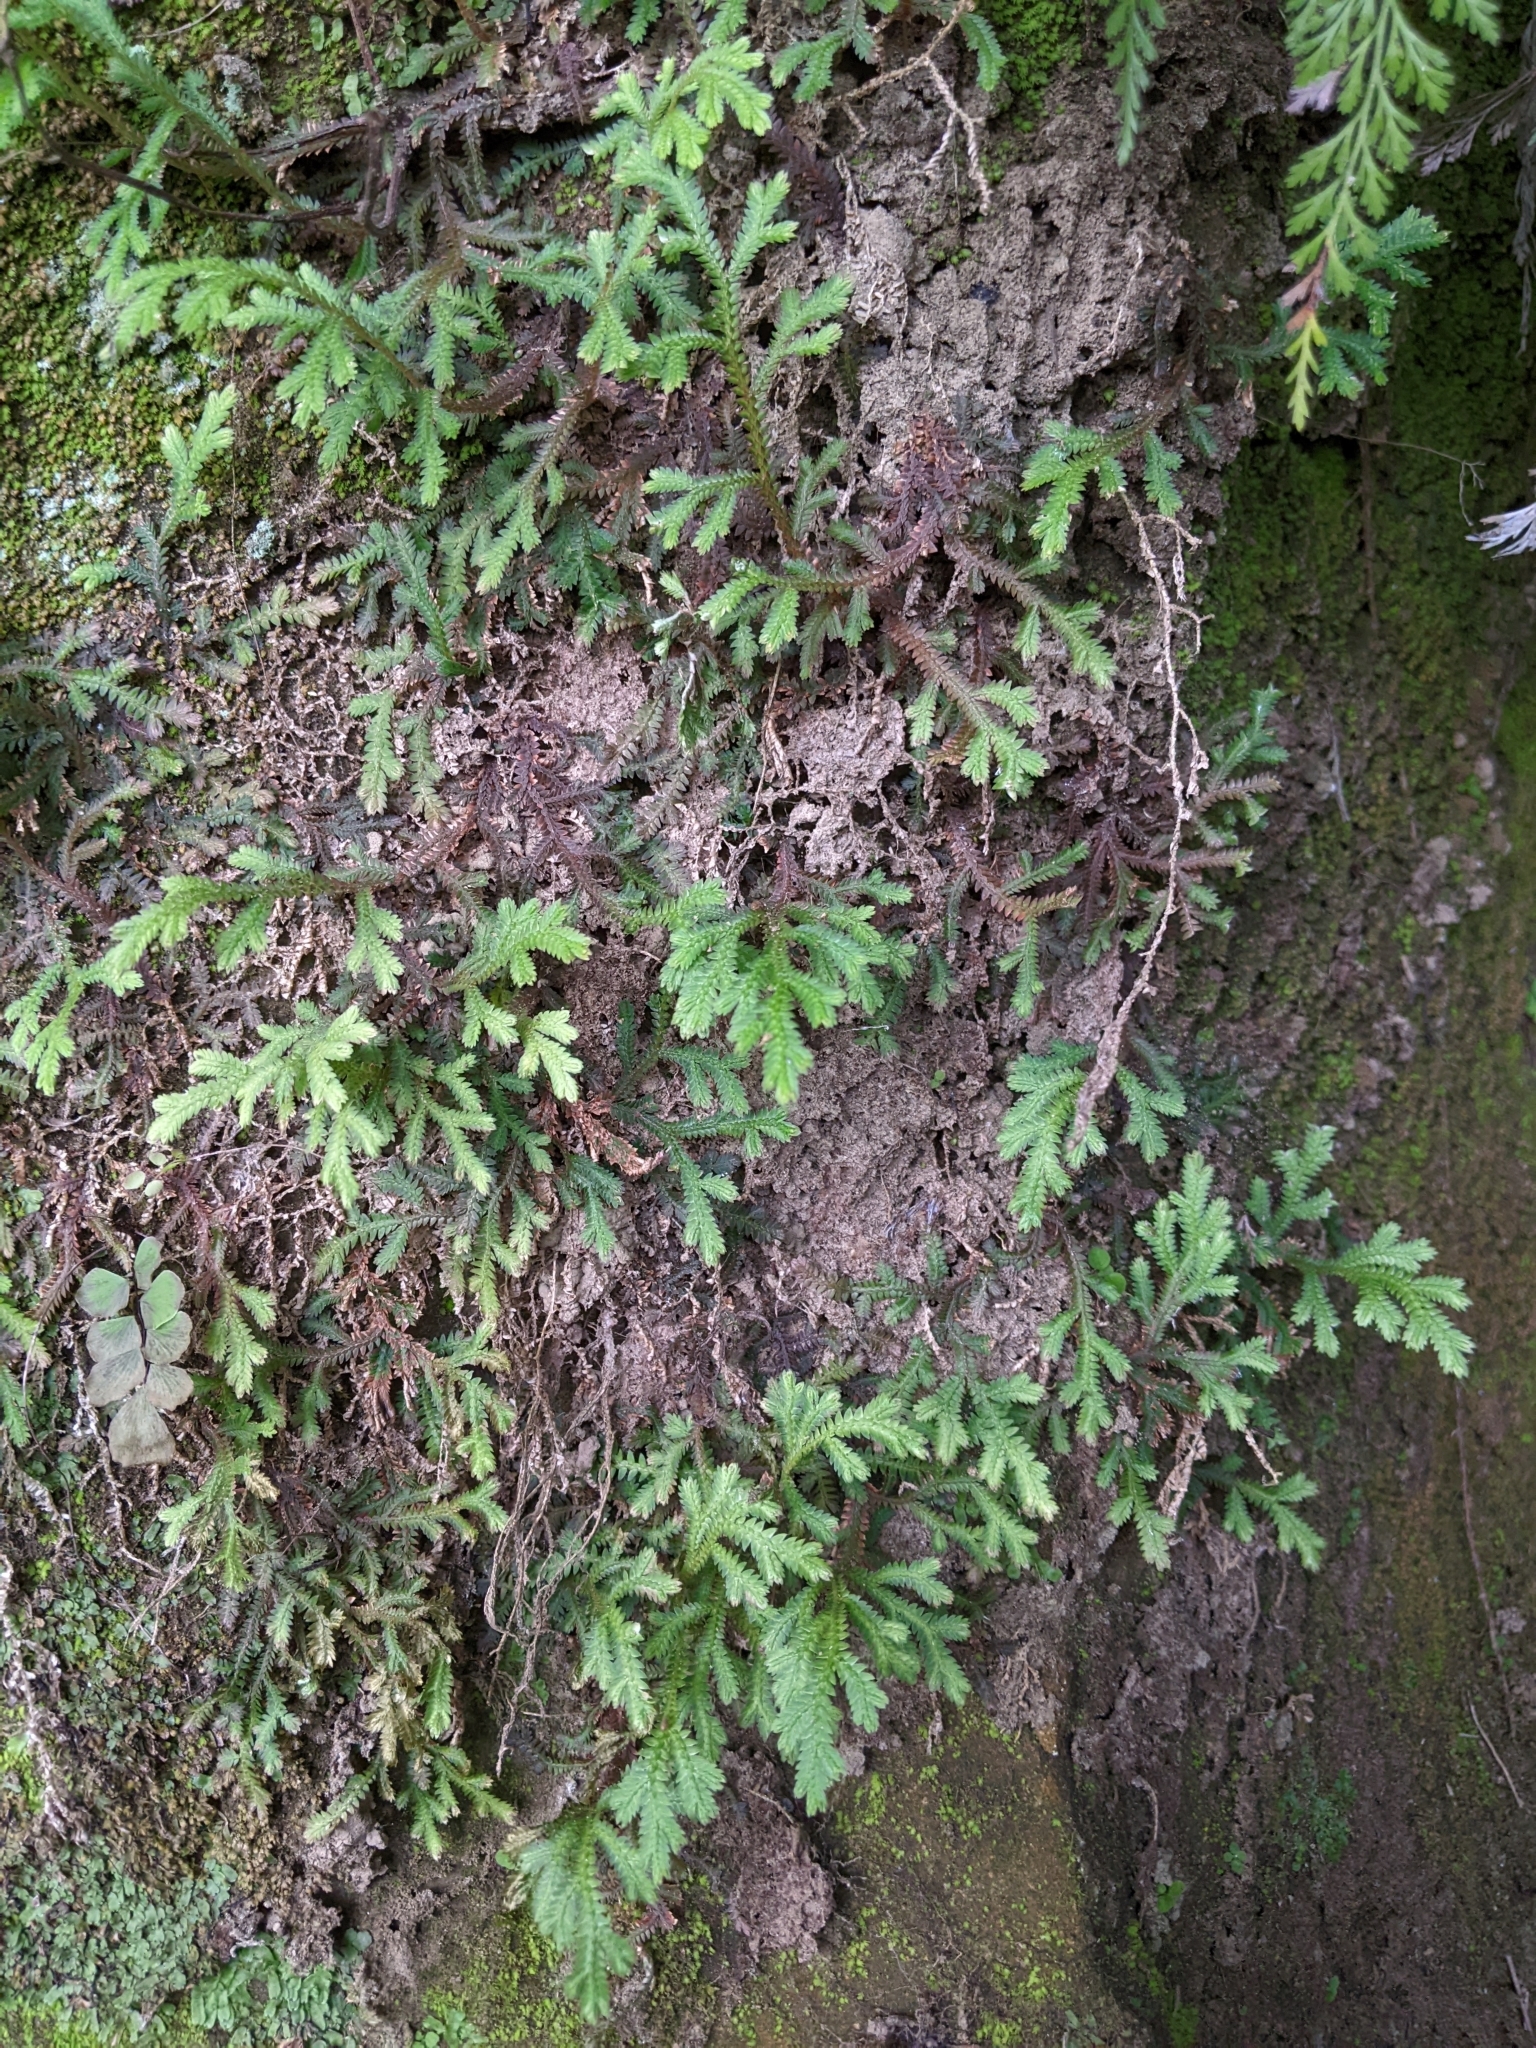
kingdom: Plantae
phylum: Tracheophyta
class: Lycopodiopsida
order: Selaginellales
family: Selaginellaceae
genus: Selaginella
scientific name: Selaginella repanda
